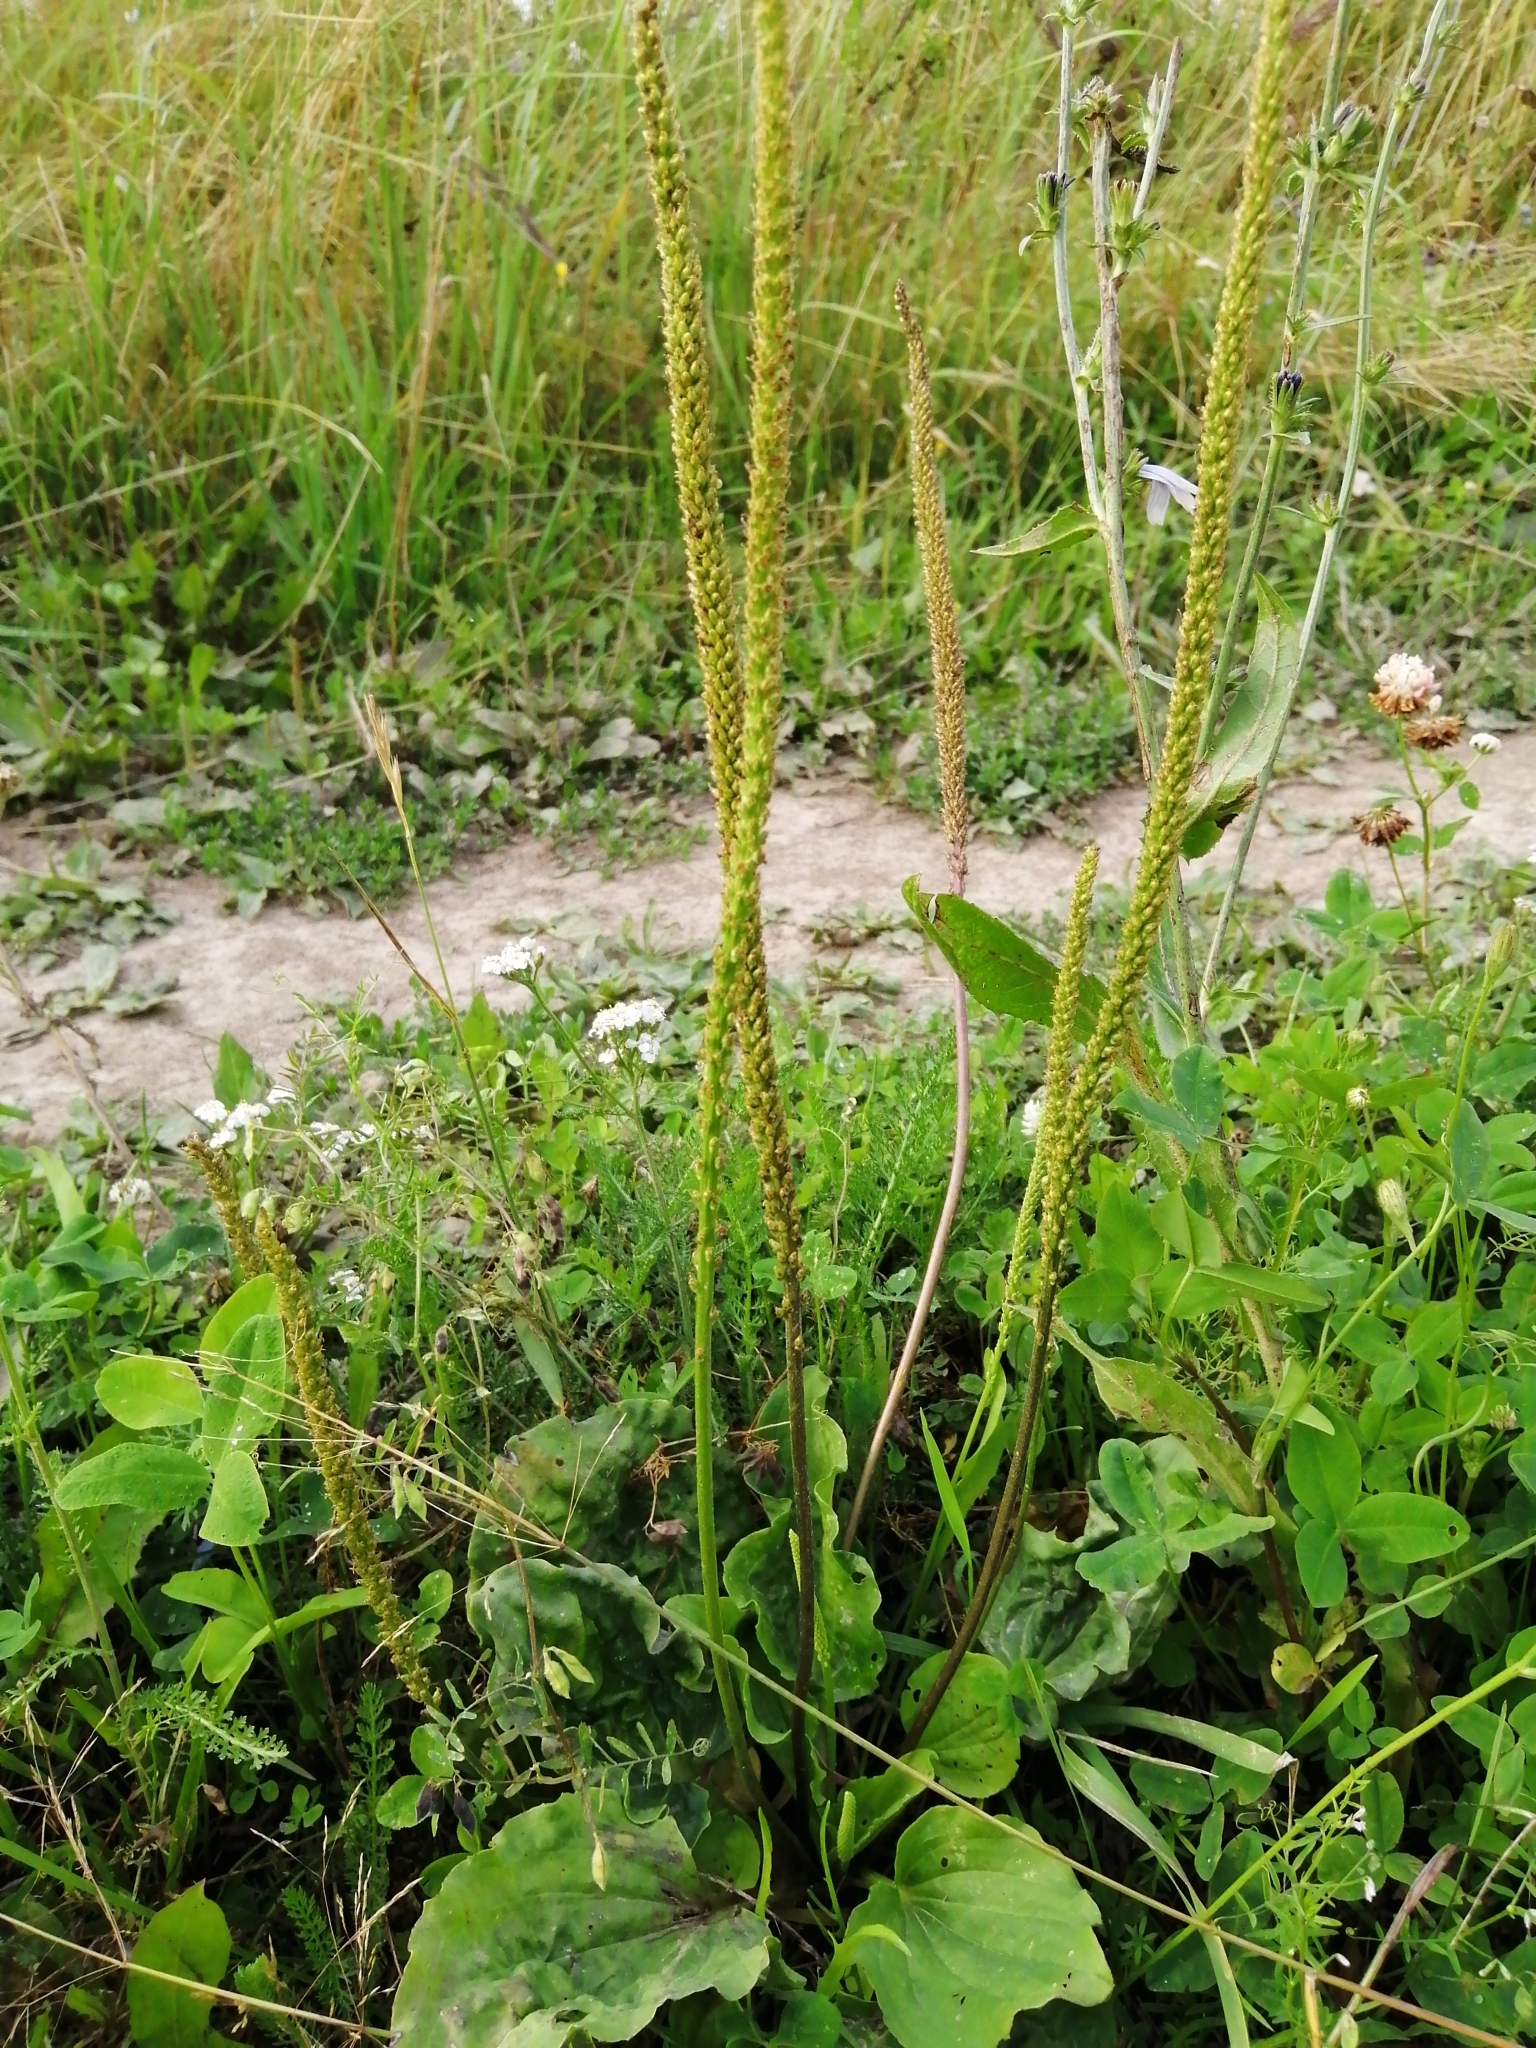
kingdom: Plantae
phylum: Tracheophyta
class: Magnoliopsida
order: Lamiales
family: Plantaginaceae
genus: Plantago
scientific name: Plantago major
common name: Common plantain
